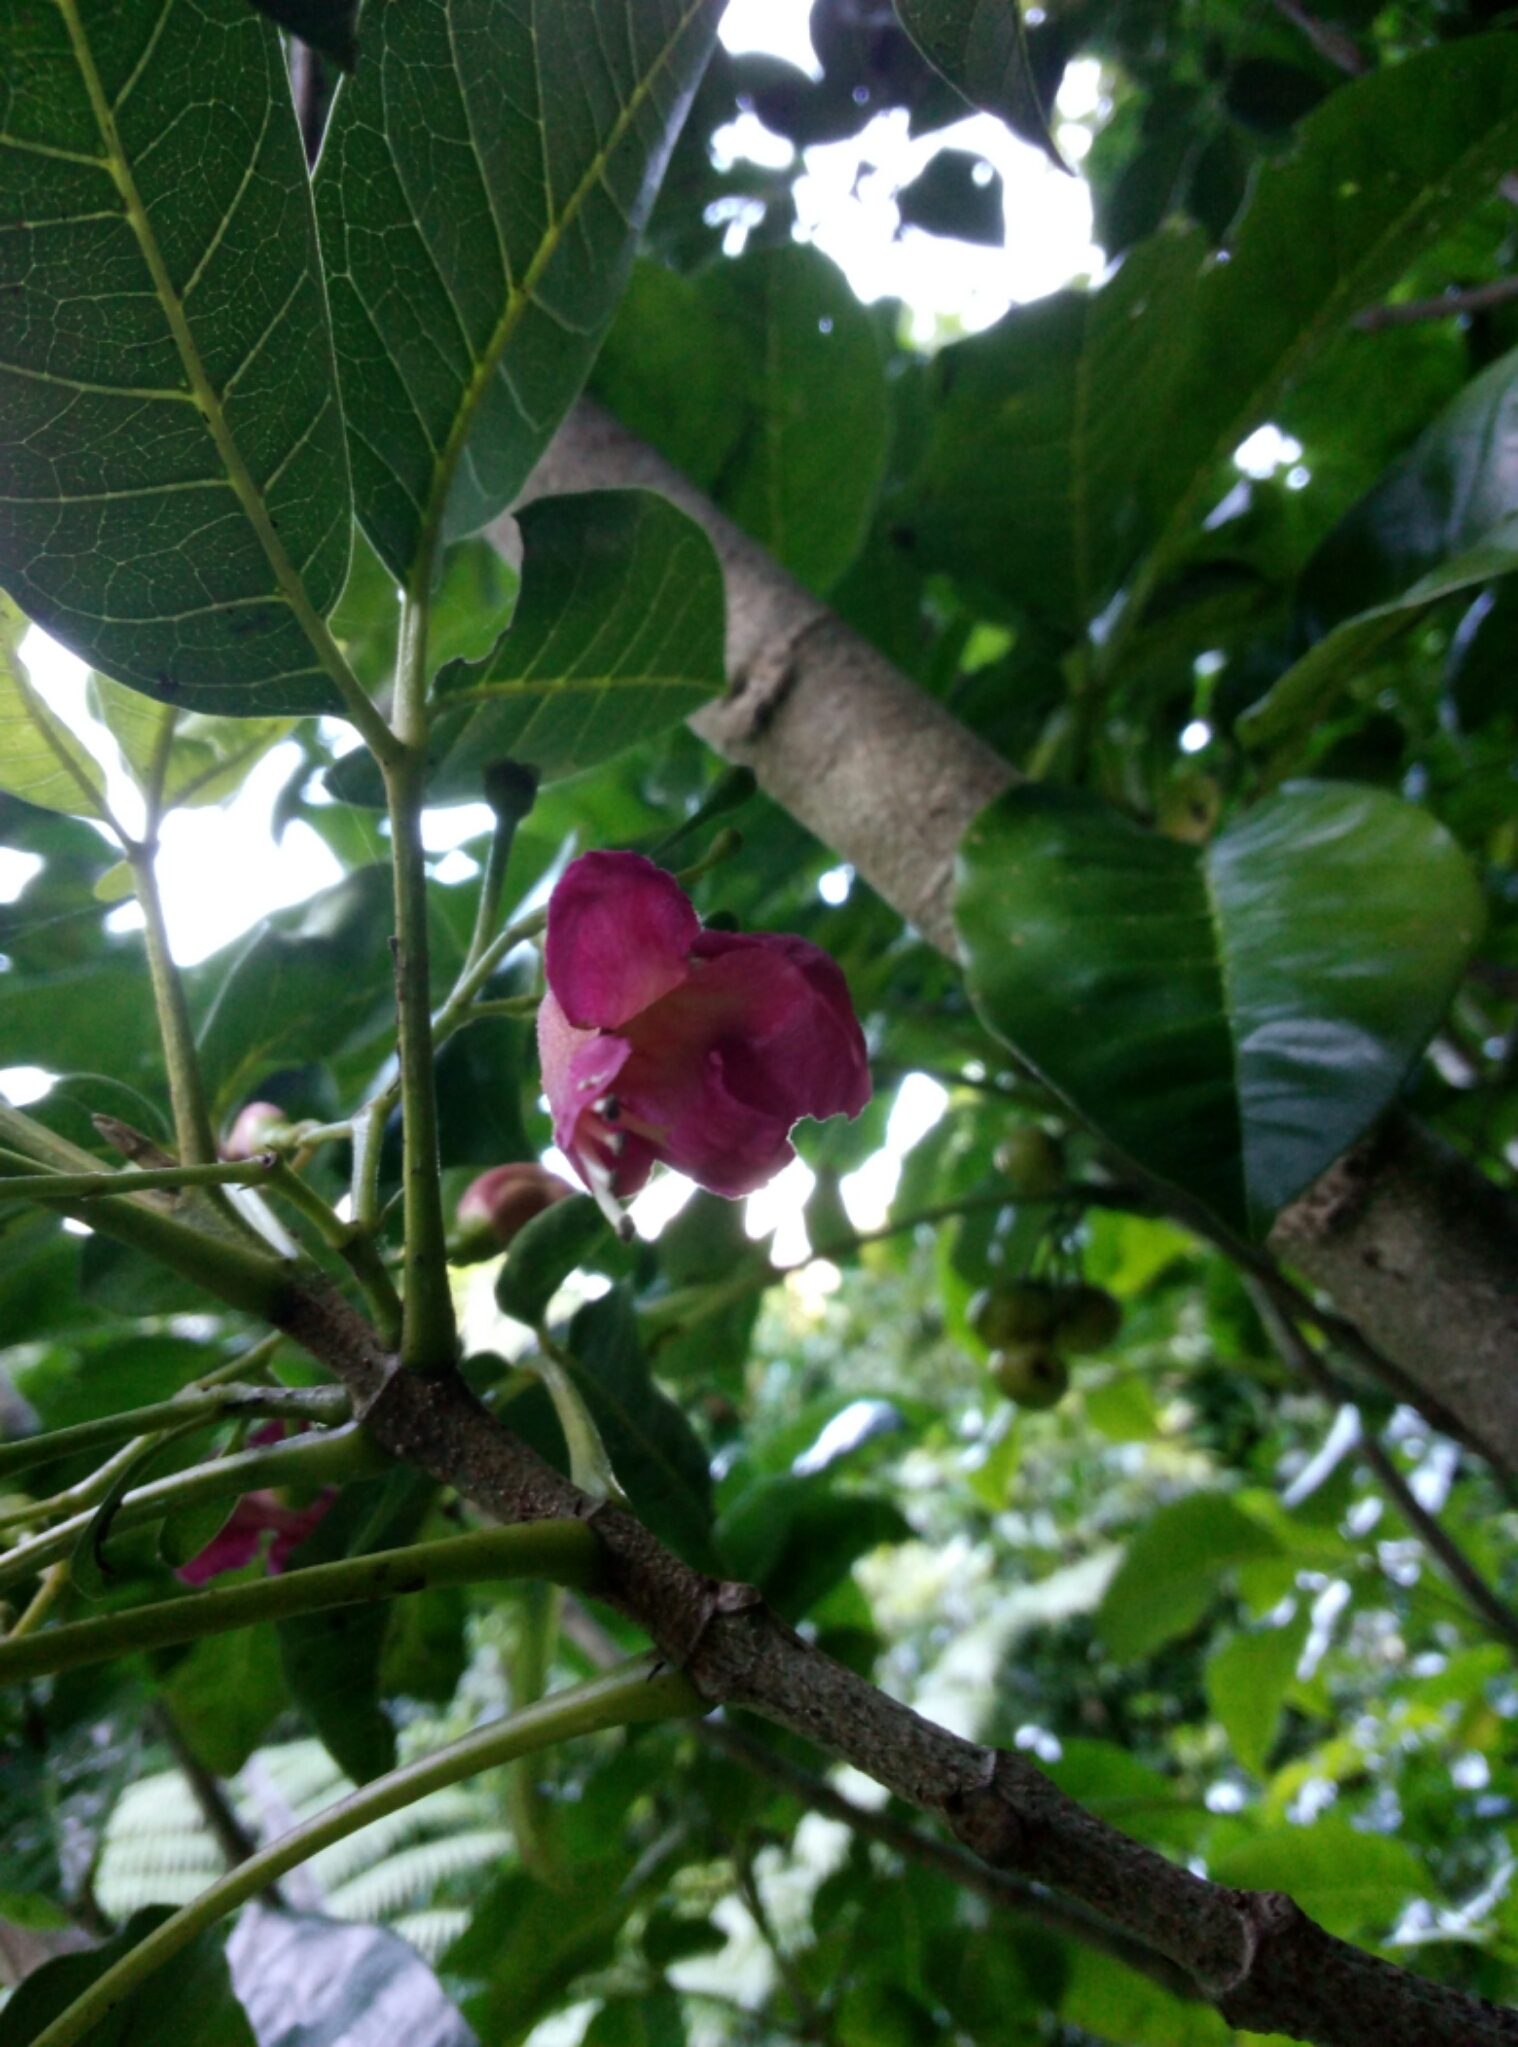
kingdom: Plantae
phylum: Tracheophyta
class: Magnoliopsida
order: Lamiales
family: Lamiaceae
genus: Vitex
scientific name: Vitex lucens
